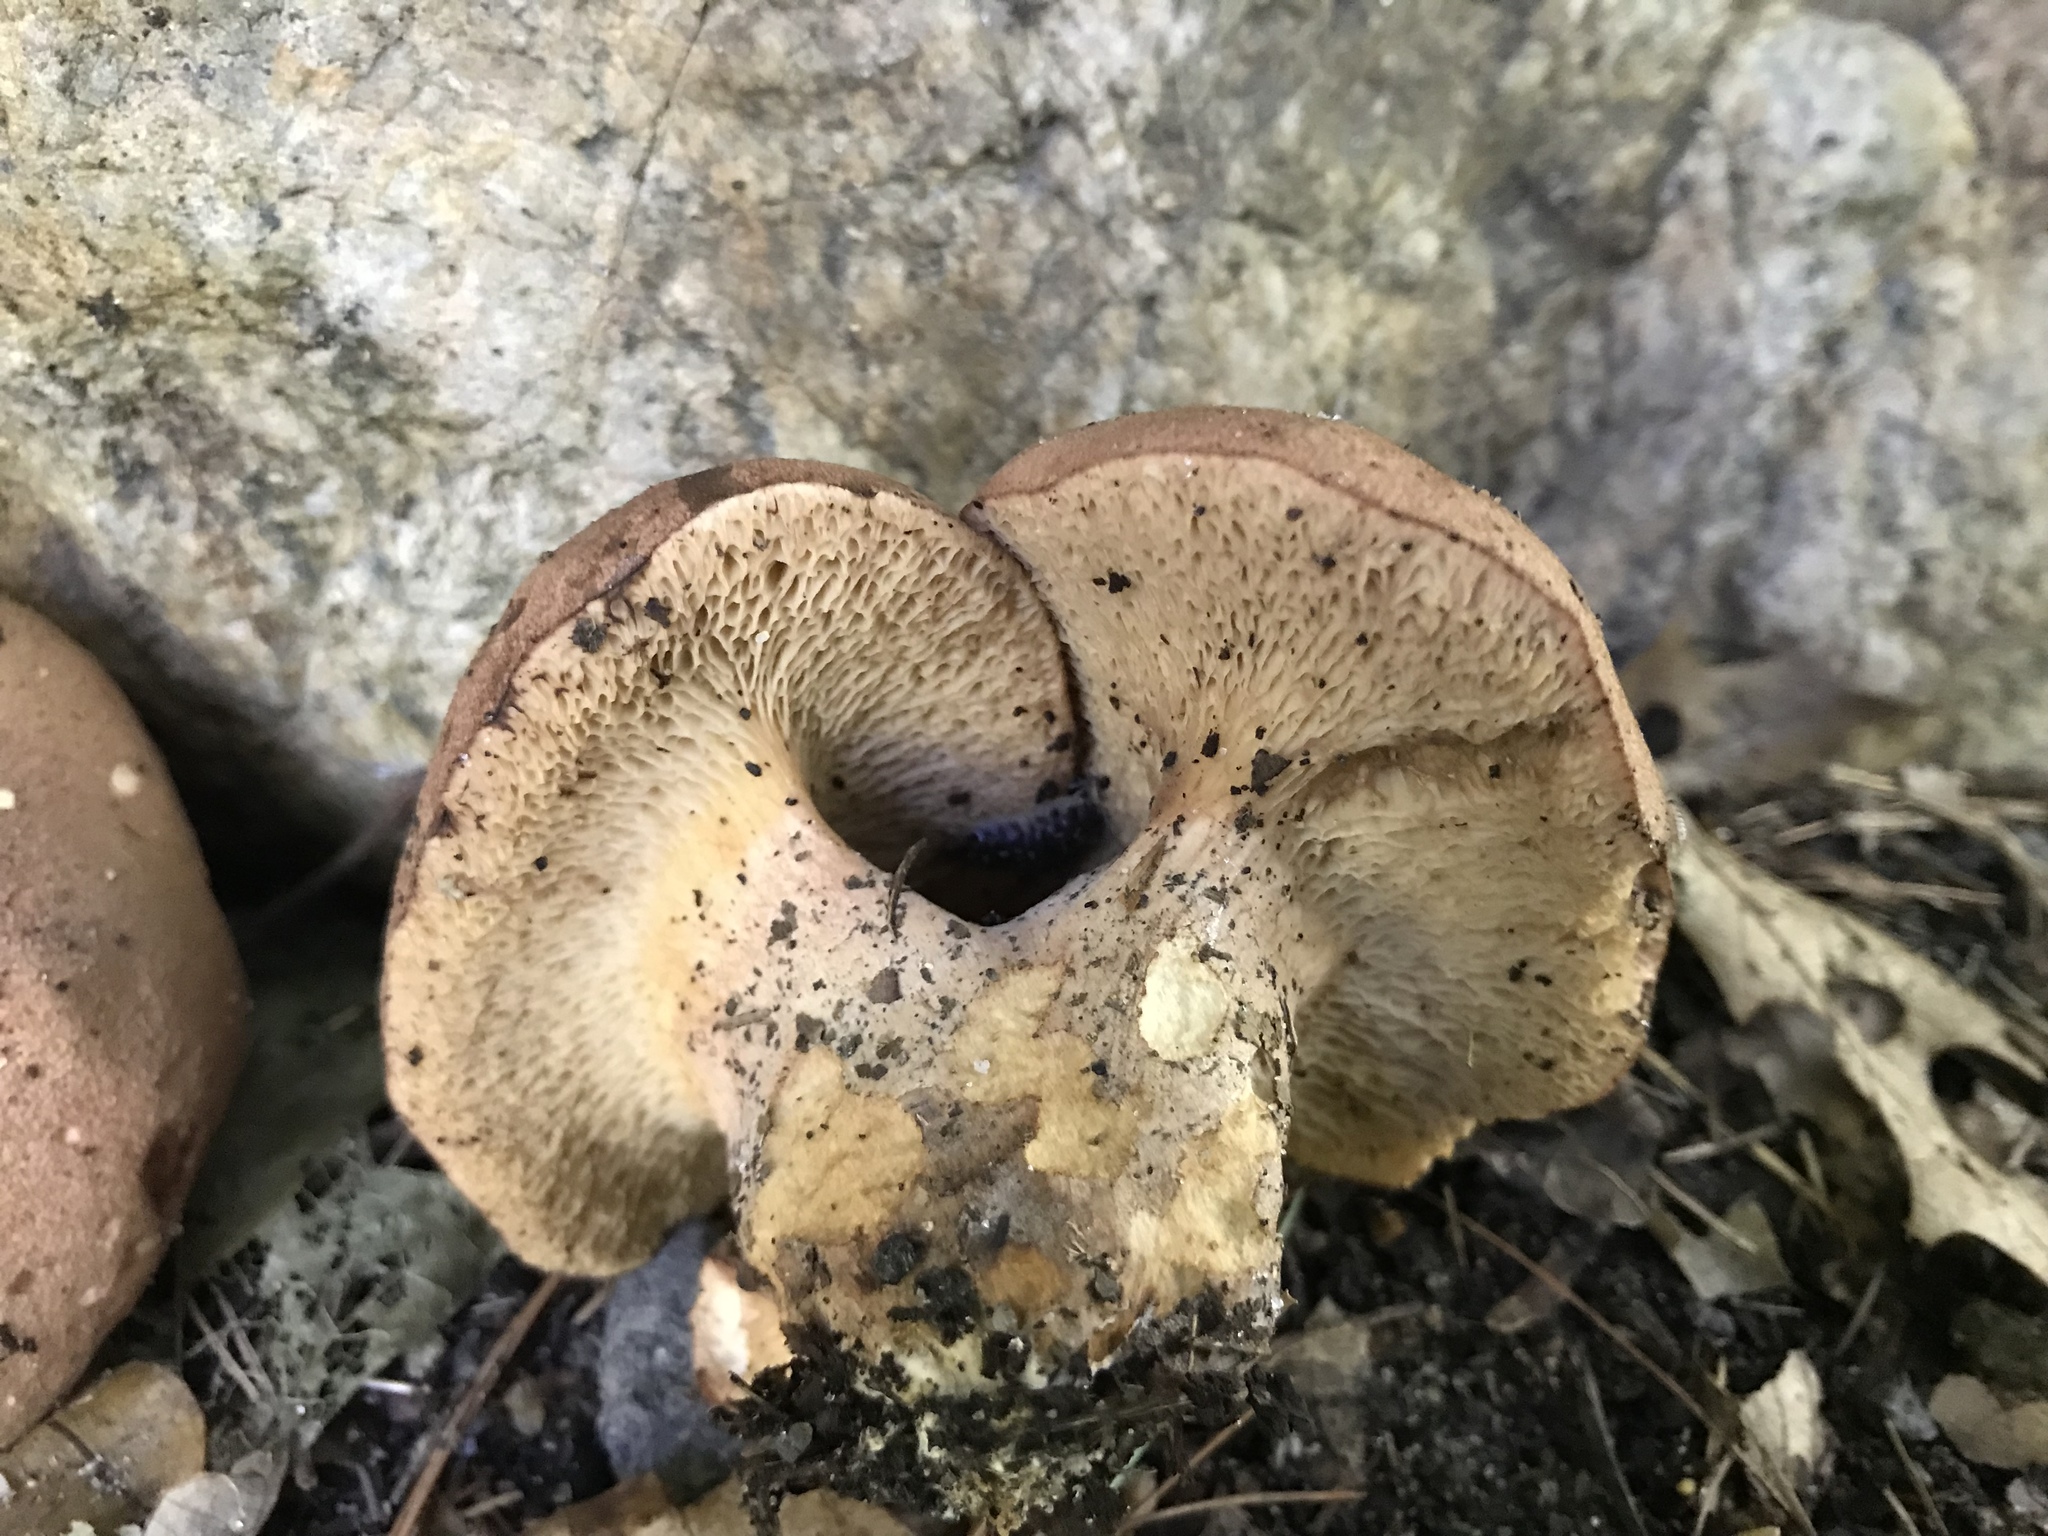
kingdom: Fungi
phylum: Basidiomycota
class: Agaricomycetes
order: Boletales
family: Boletaceae
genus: Bothia
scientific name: Bothia castanella
